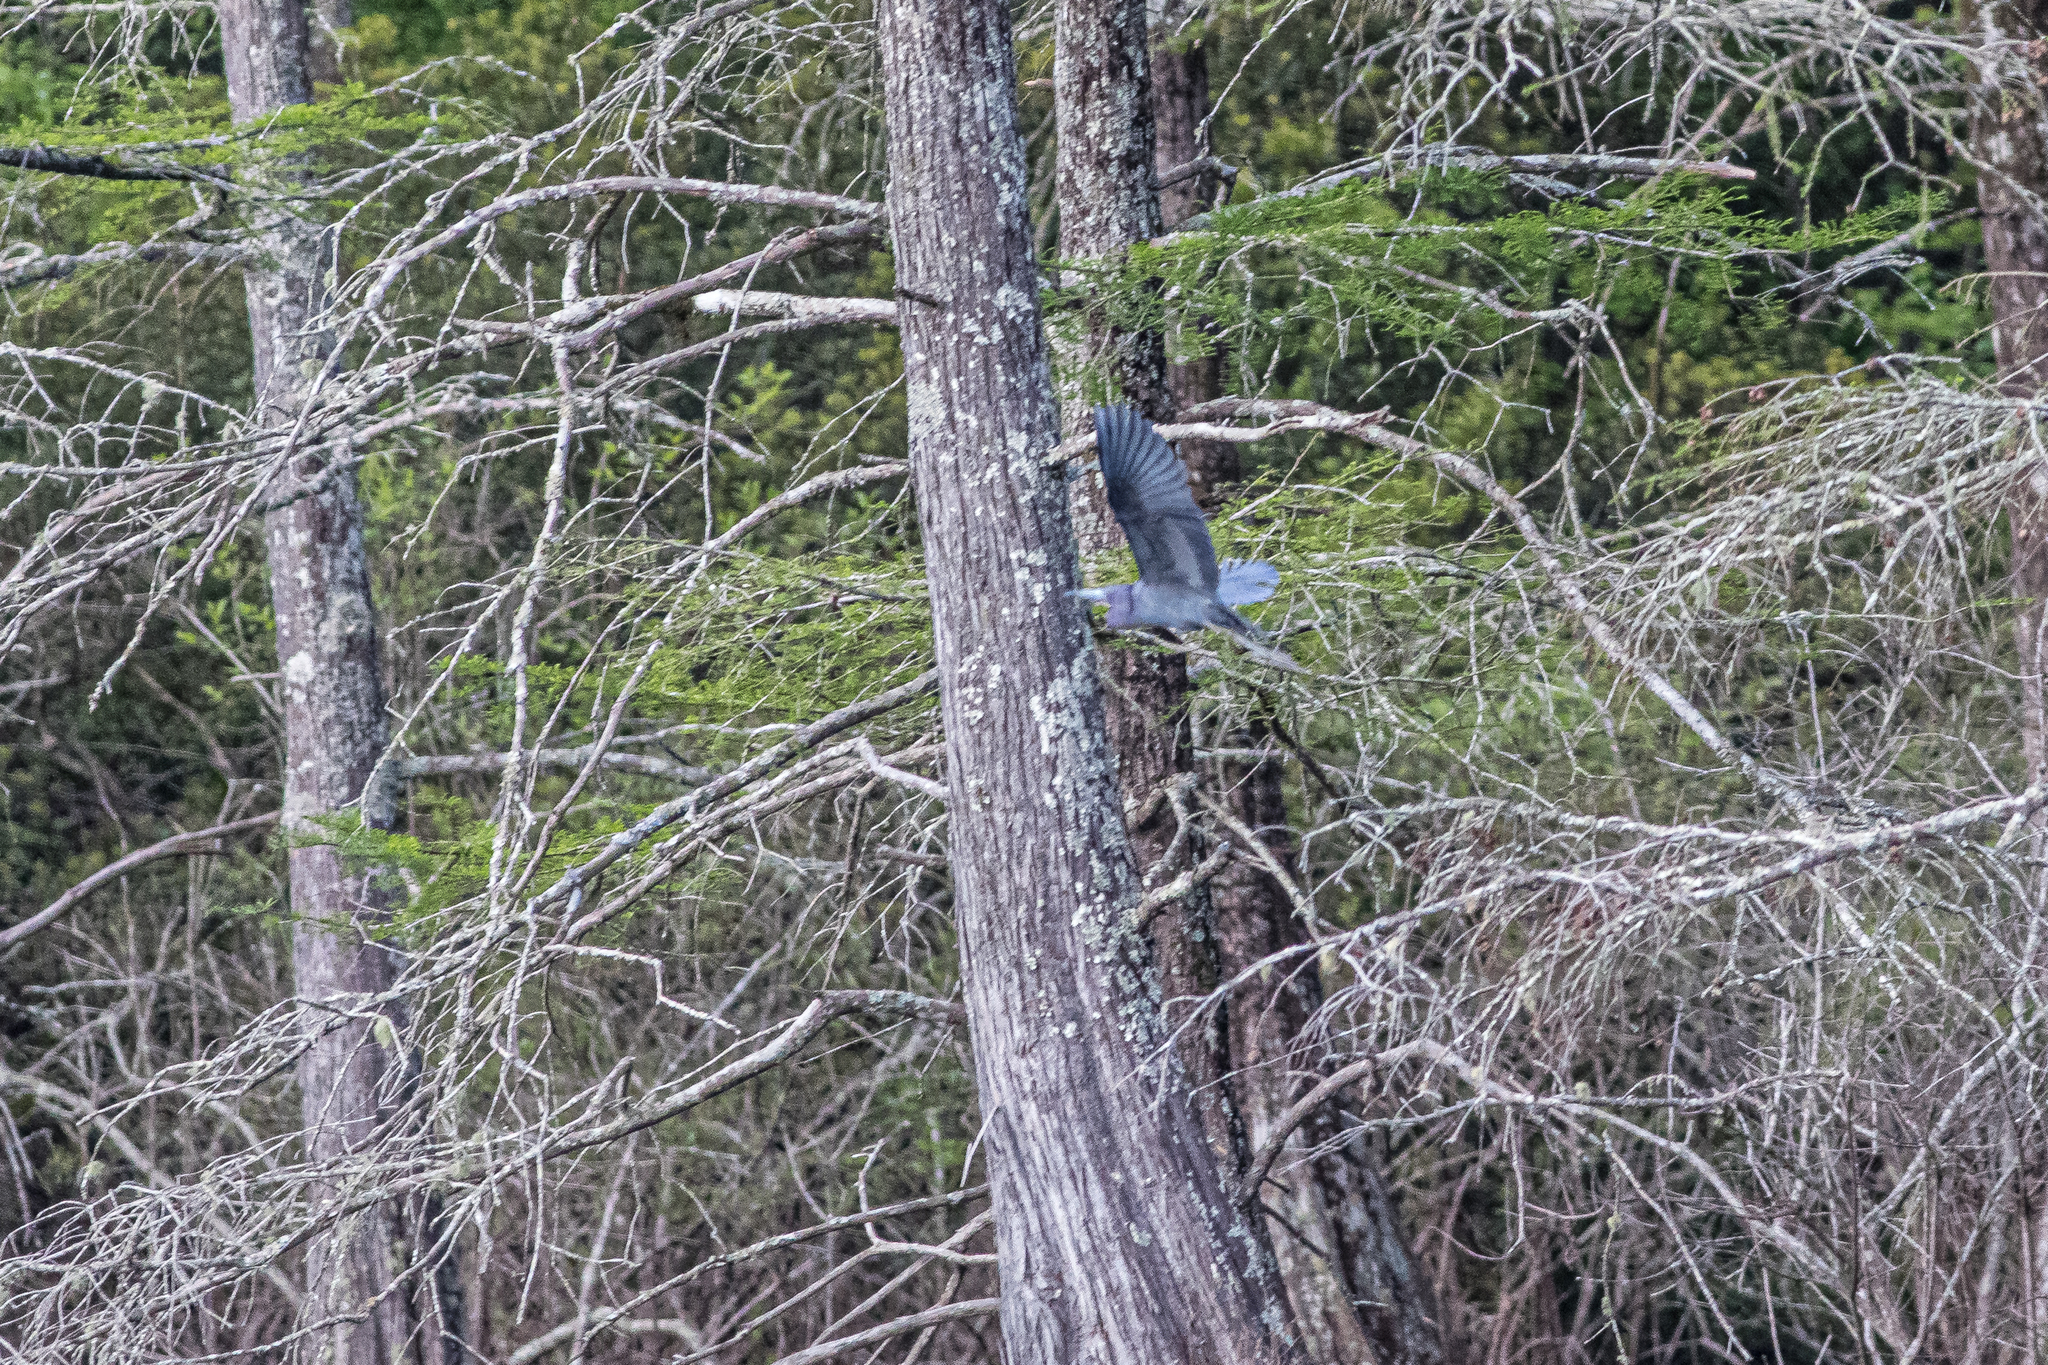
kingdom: Animalia
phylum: Chordata
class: Aves
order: Pelecaniformes
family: Ardeidae
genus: Egretta
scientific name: Egretta caerulea
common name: Little blue heron
